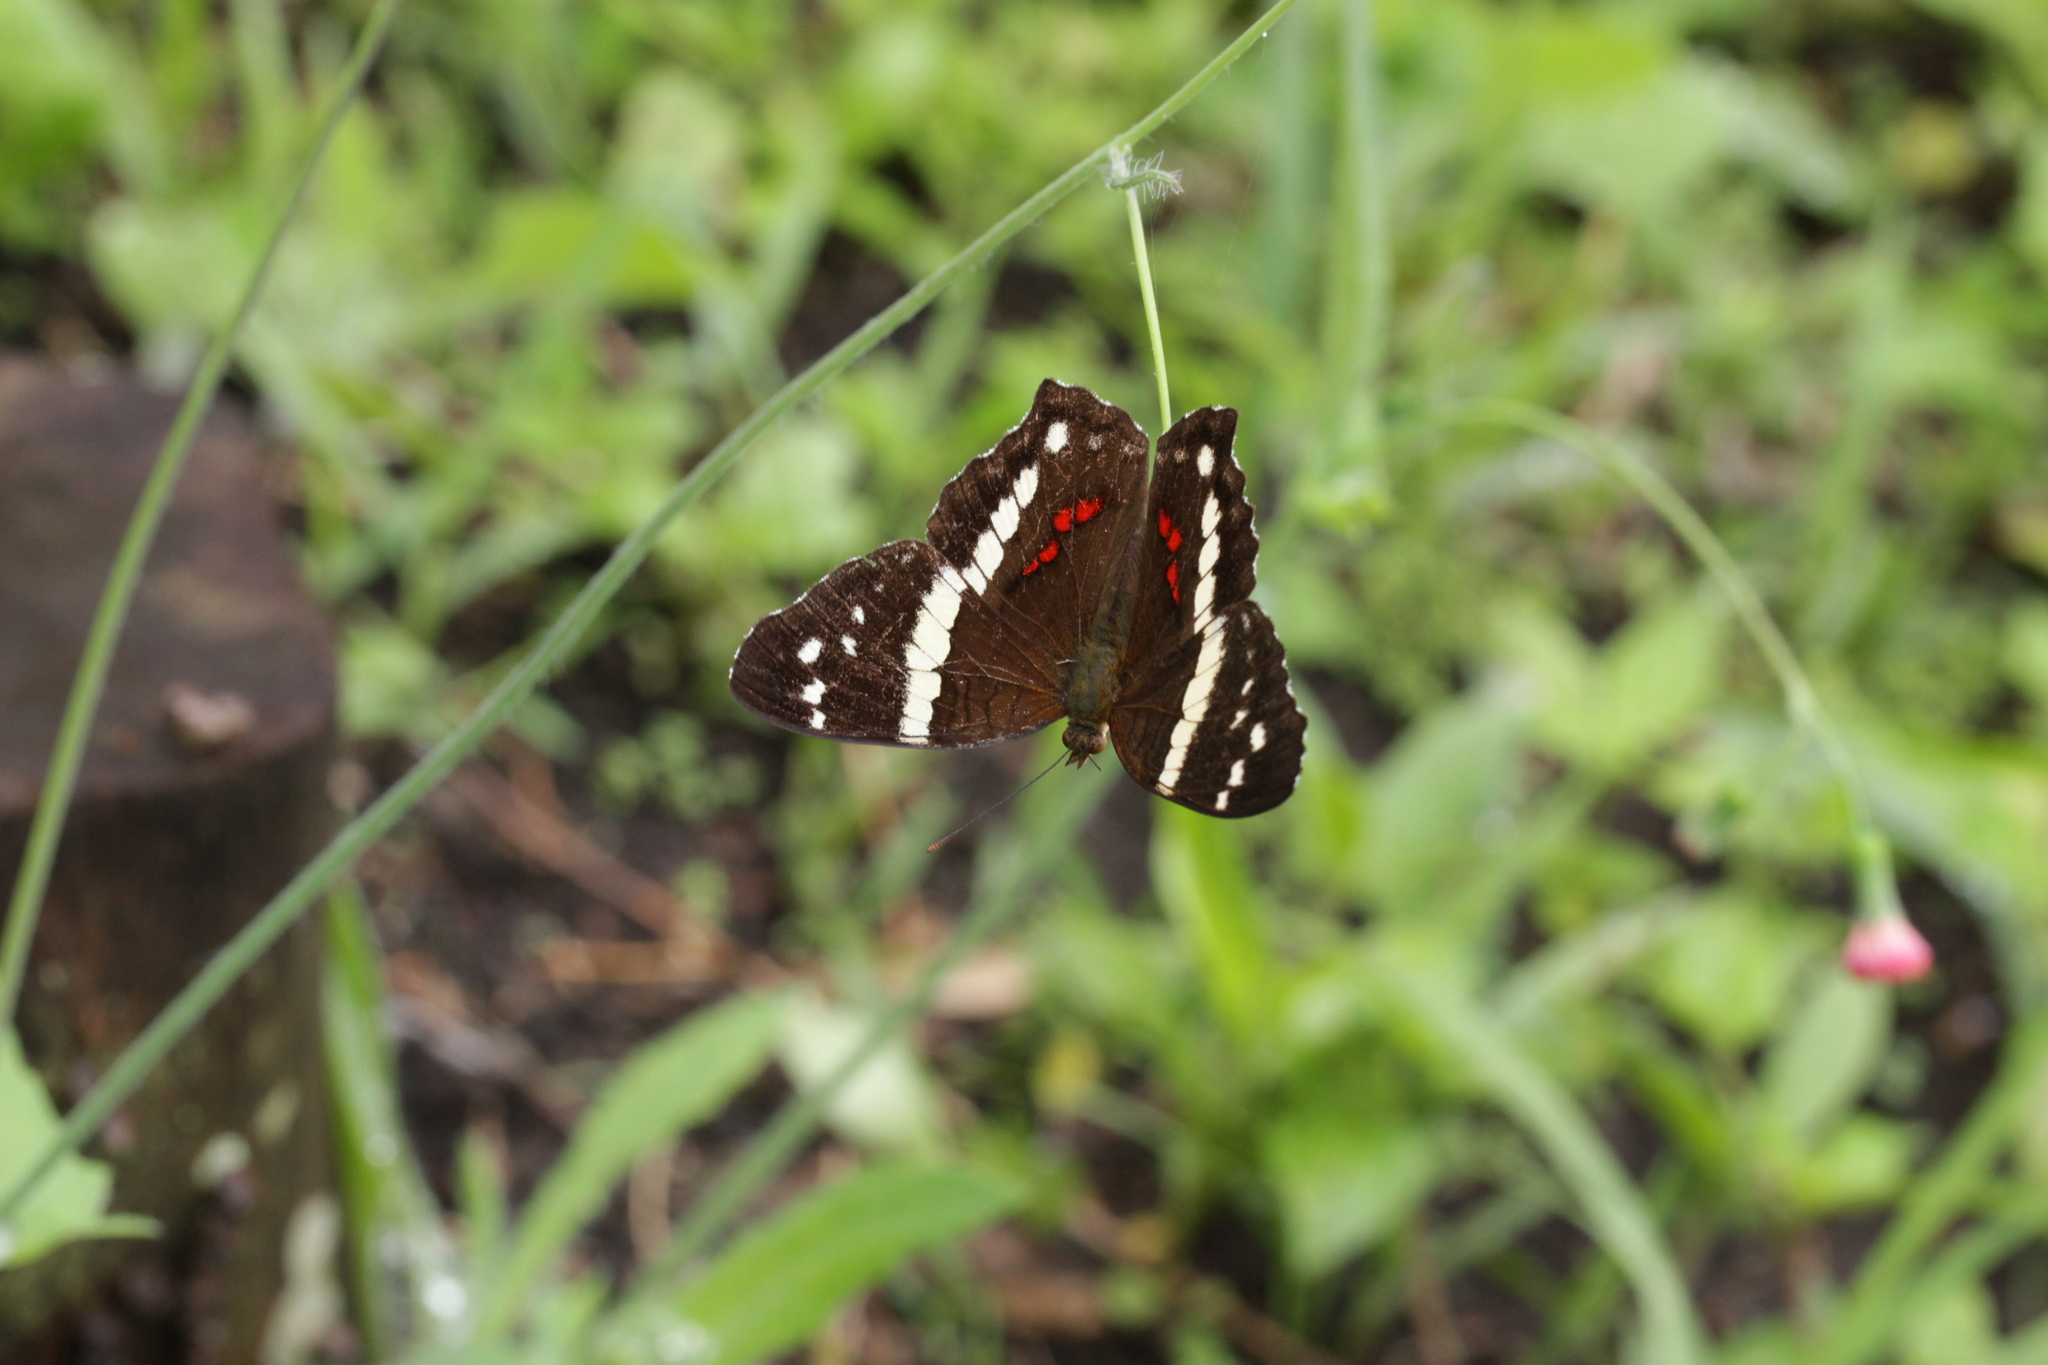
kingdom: Animalia
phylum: Arthropoda
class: Insecta
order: Lepidoptera
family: Nymphalidae
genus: Anartia
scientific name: Anartia fatima
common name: Banded peacock
